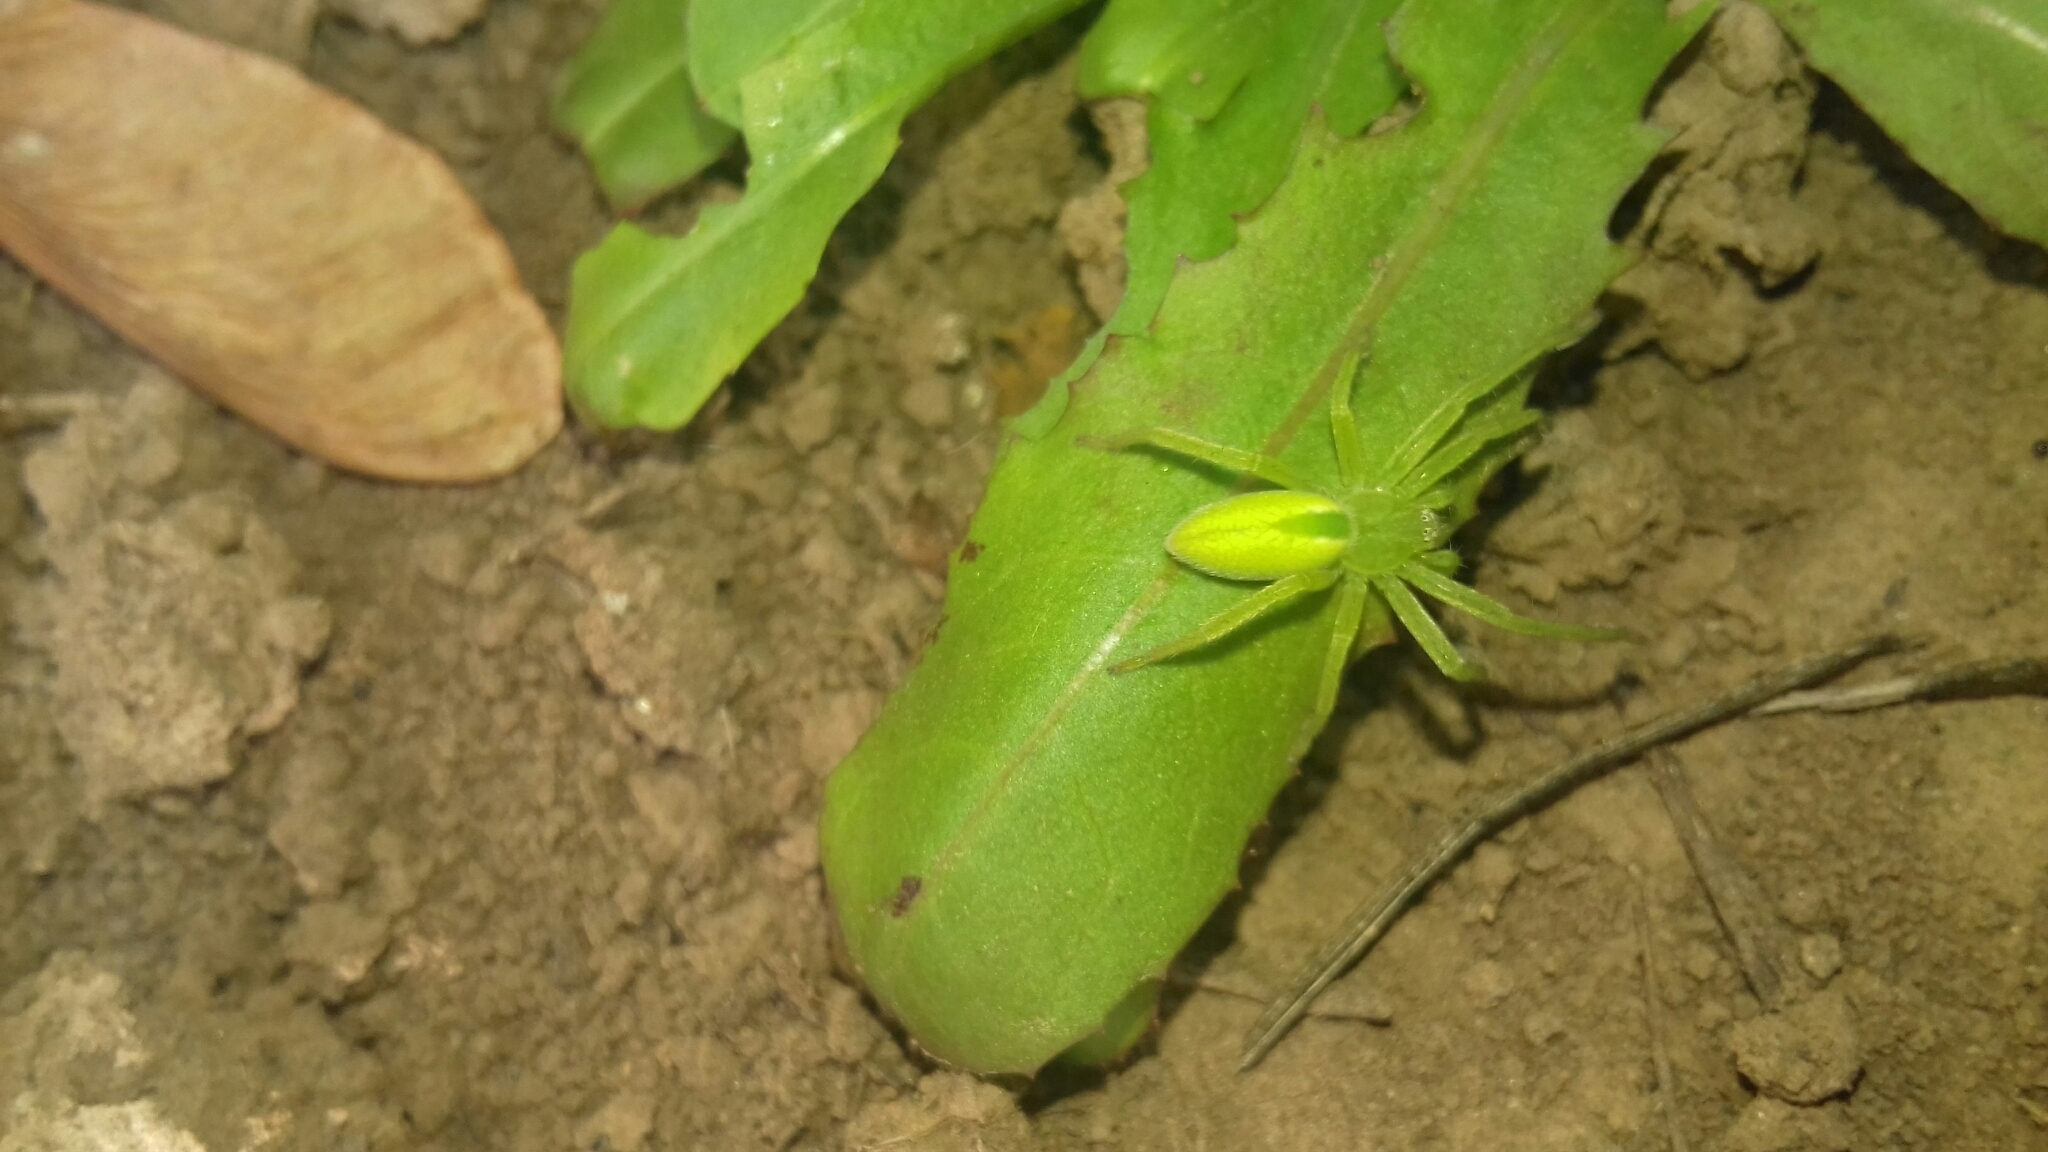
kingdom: Animalia
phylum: Arthropoda
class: Arachnida
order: Araneae
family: Sparassidae
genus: Micrommata
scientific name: Micrommata virescens
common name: Green spider
